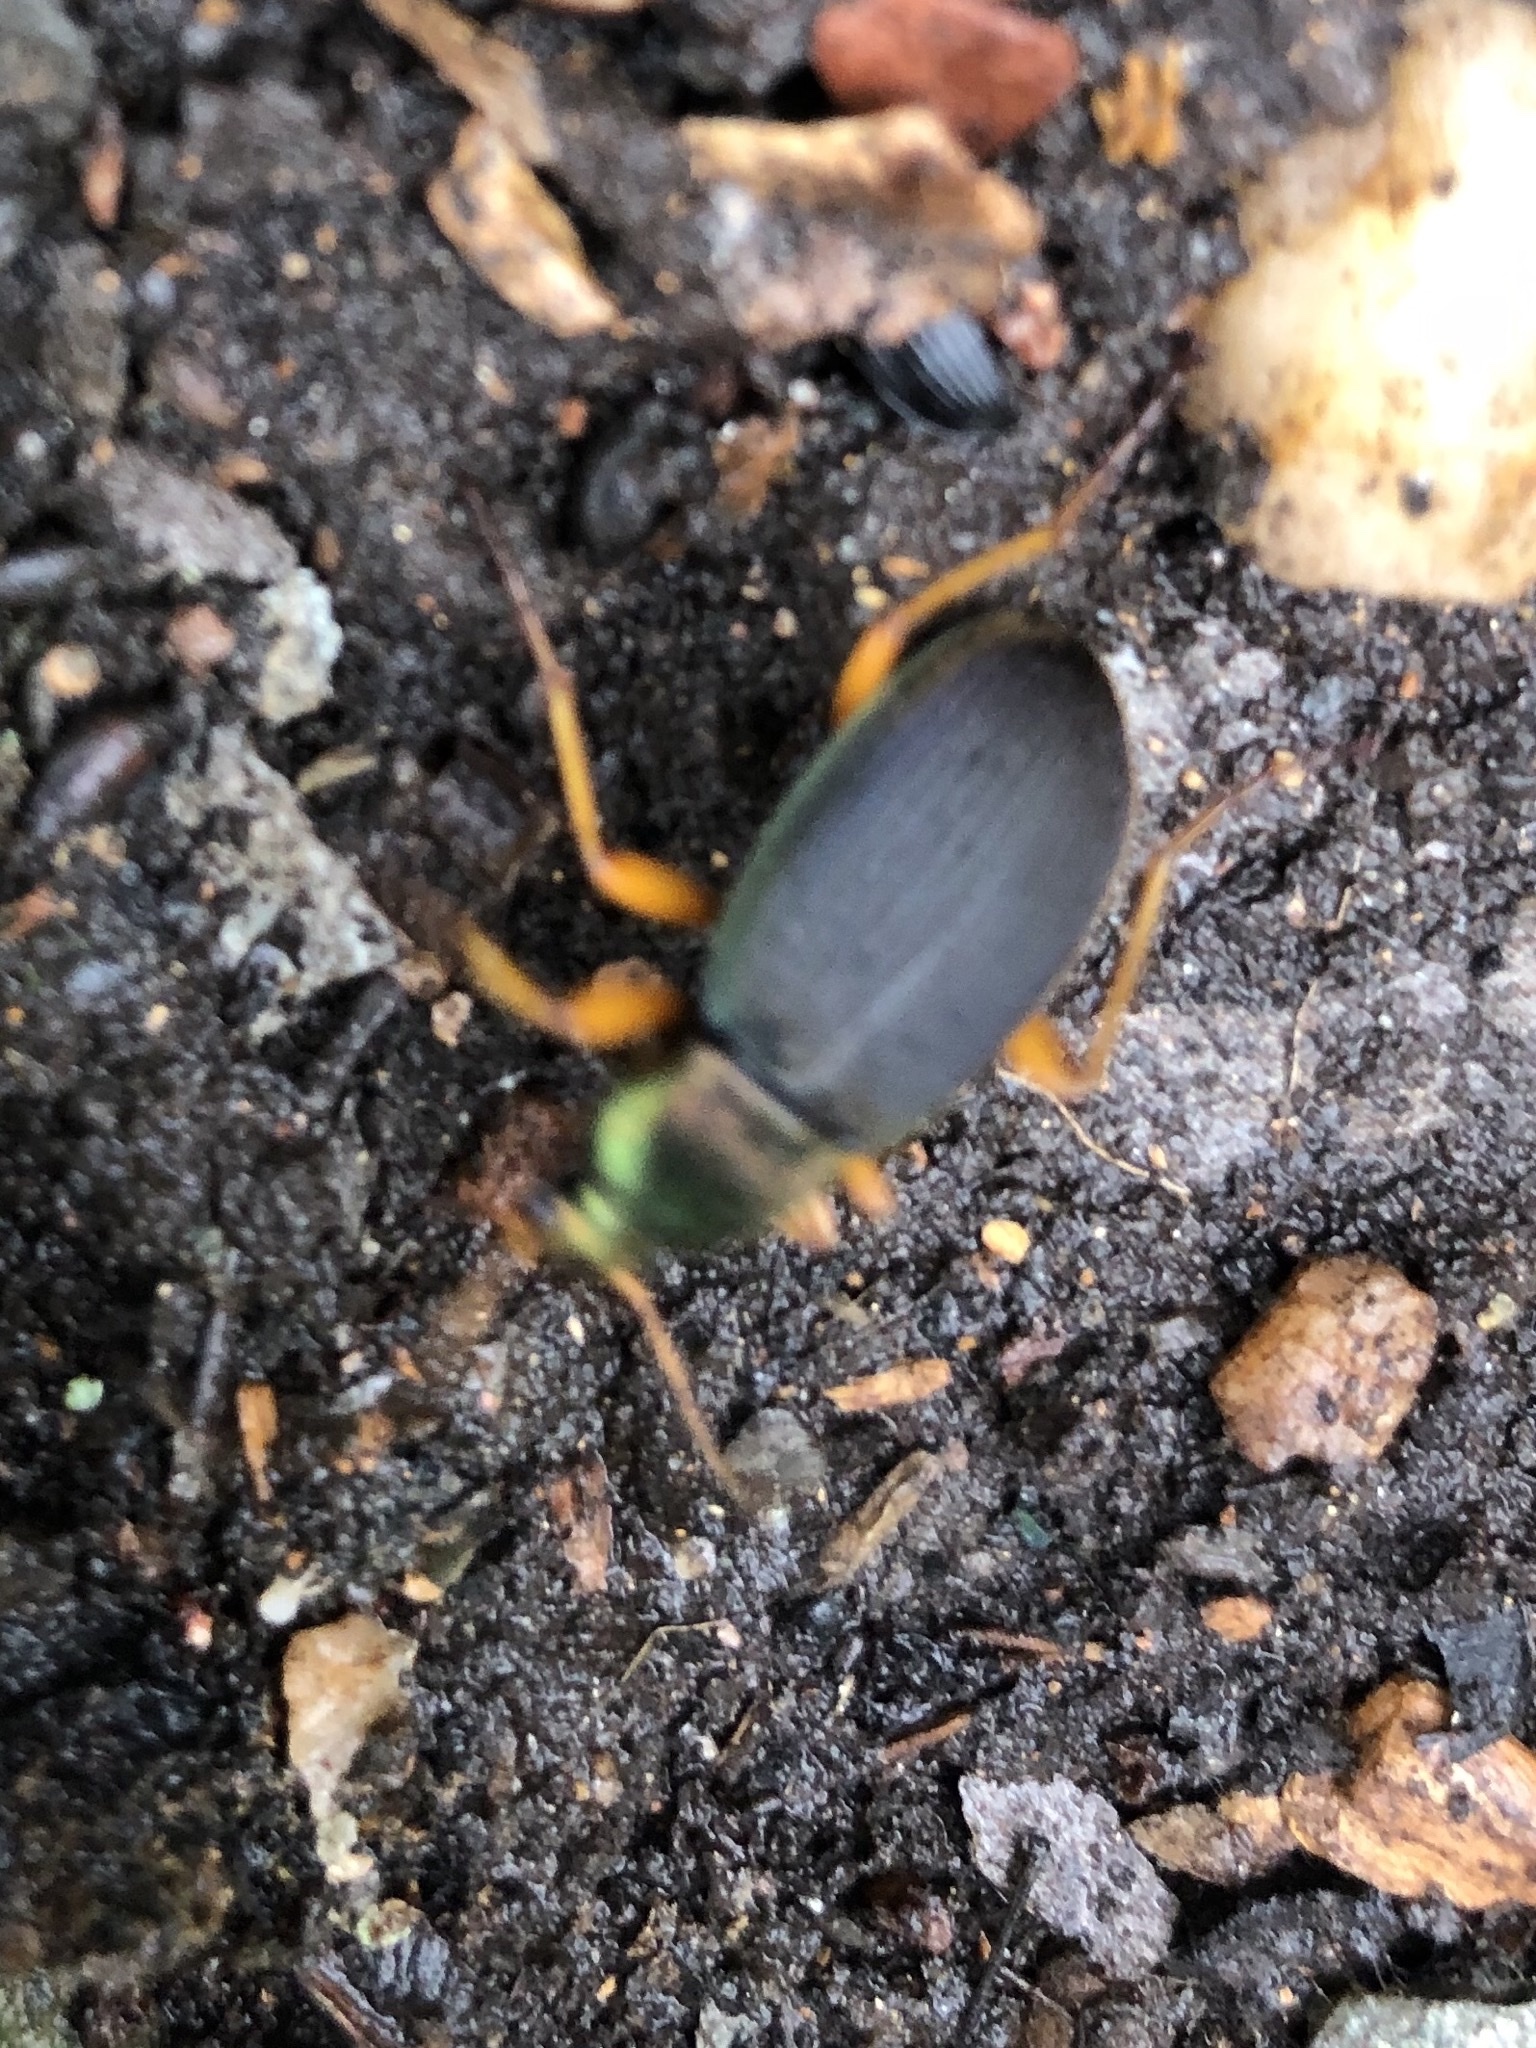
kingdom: Animalia
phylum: Arthropoda
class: Insecta
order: Coleoptera
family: Carabidae
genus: Chlaenius
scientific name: Chlaenius tricolor
